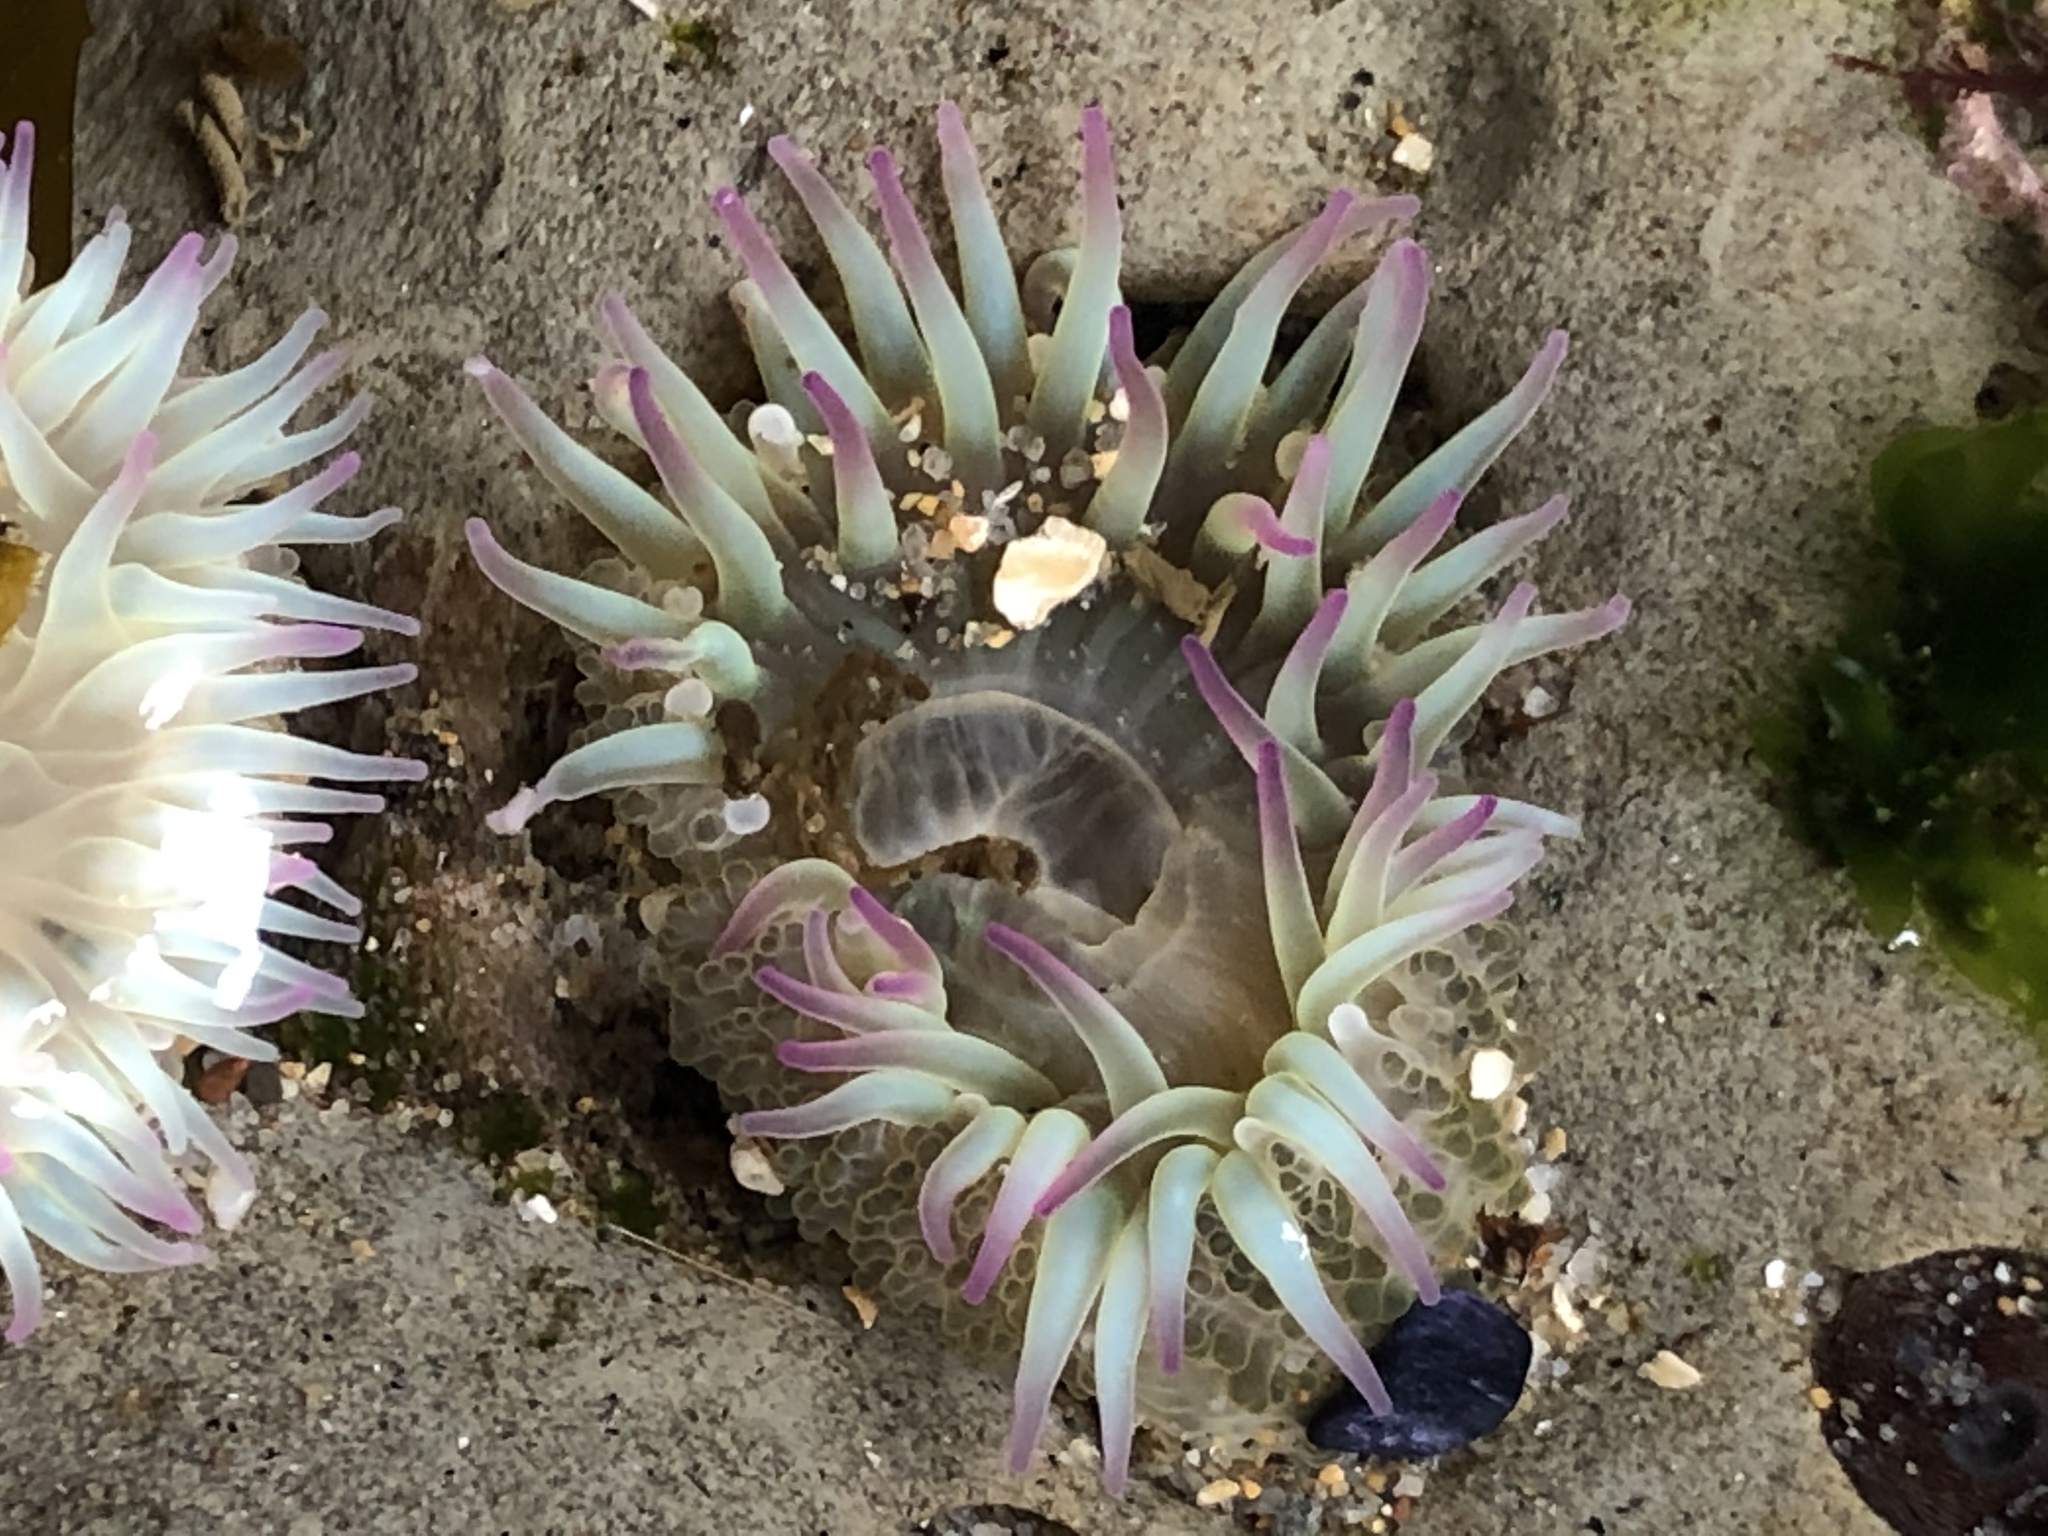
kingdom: Animalia
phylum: Cnidaria
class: Anthozoa
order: Actiniaria
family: Actiniidae
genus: Anthopleura
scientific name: Anthopleura elegantissima
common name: Clonal anemone
